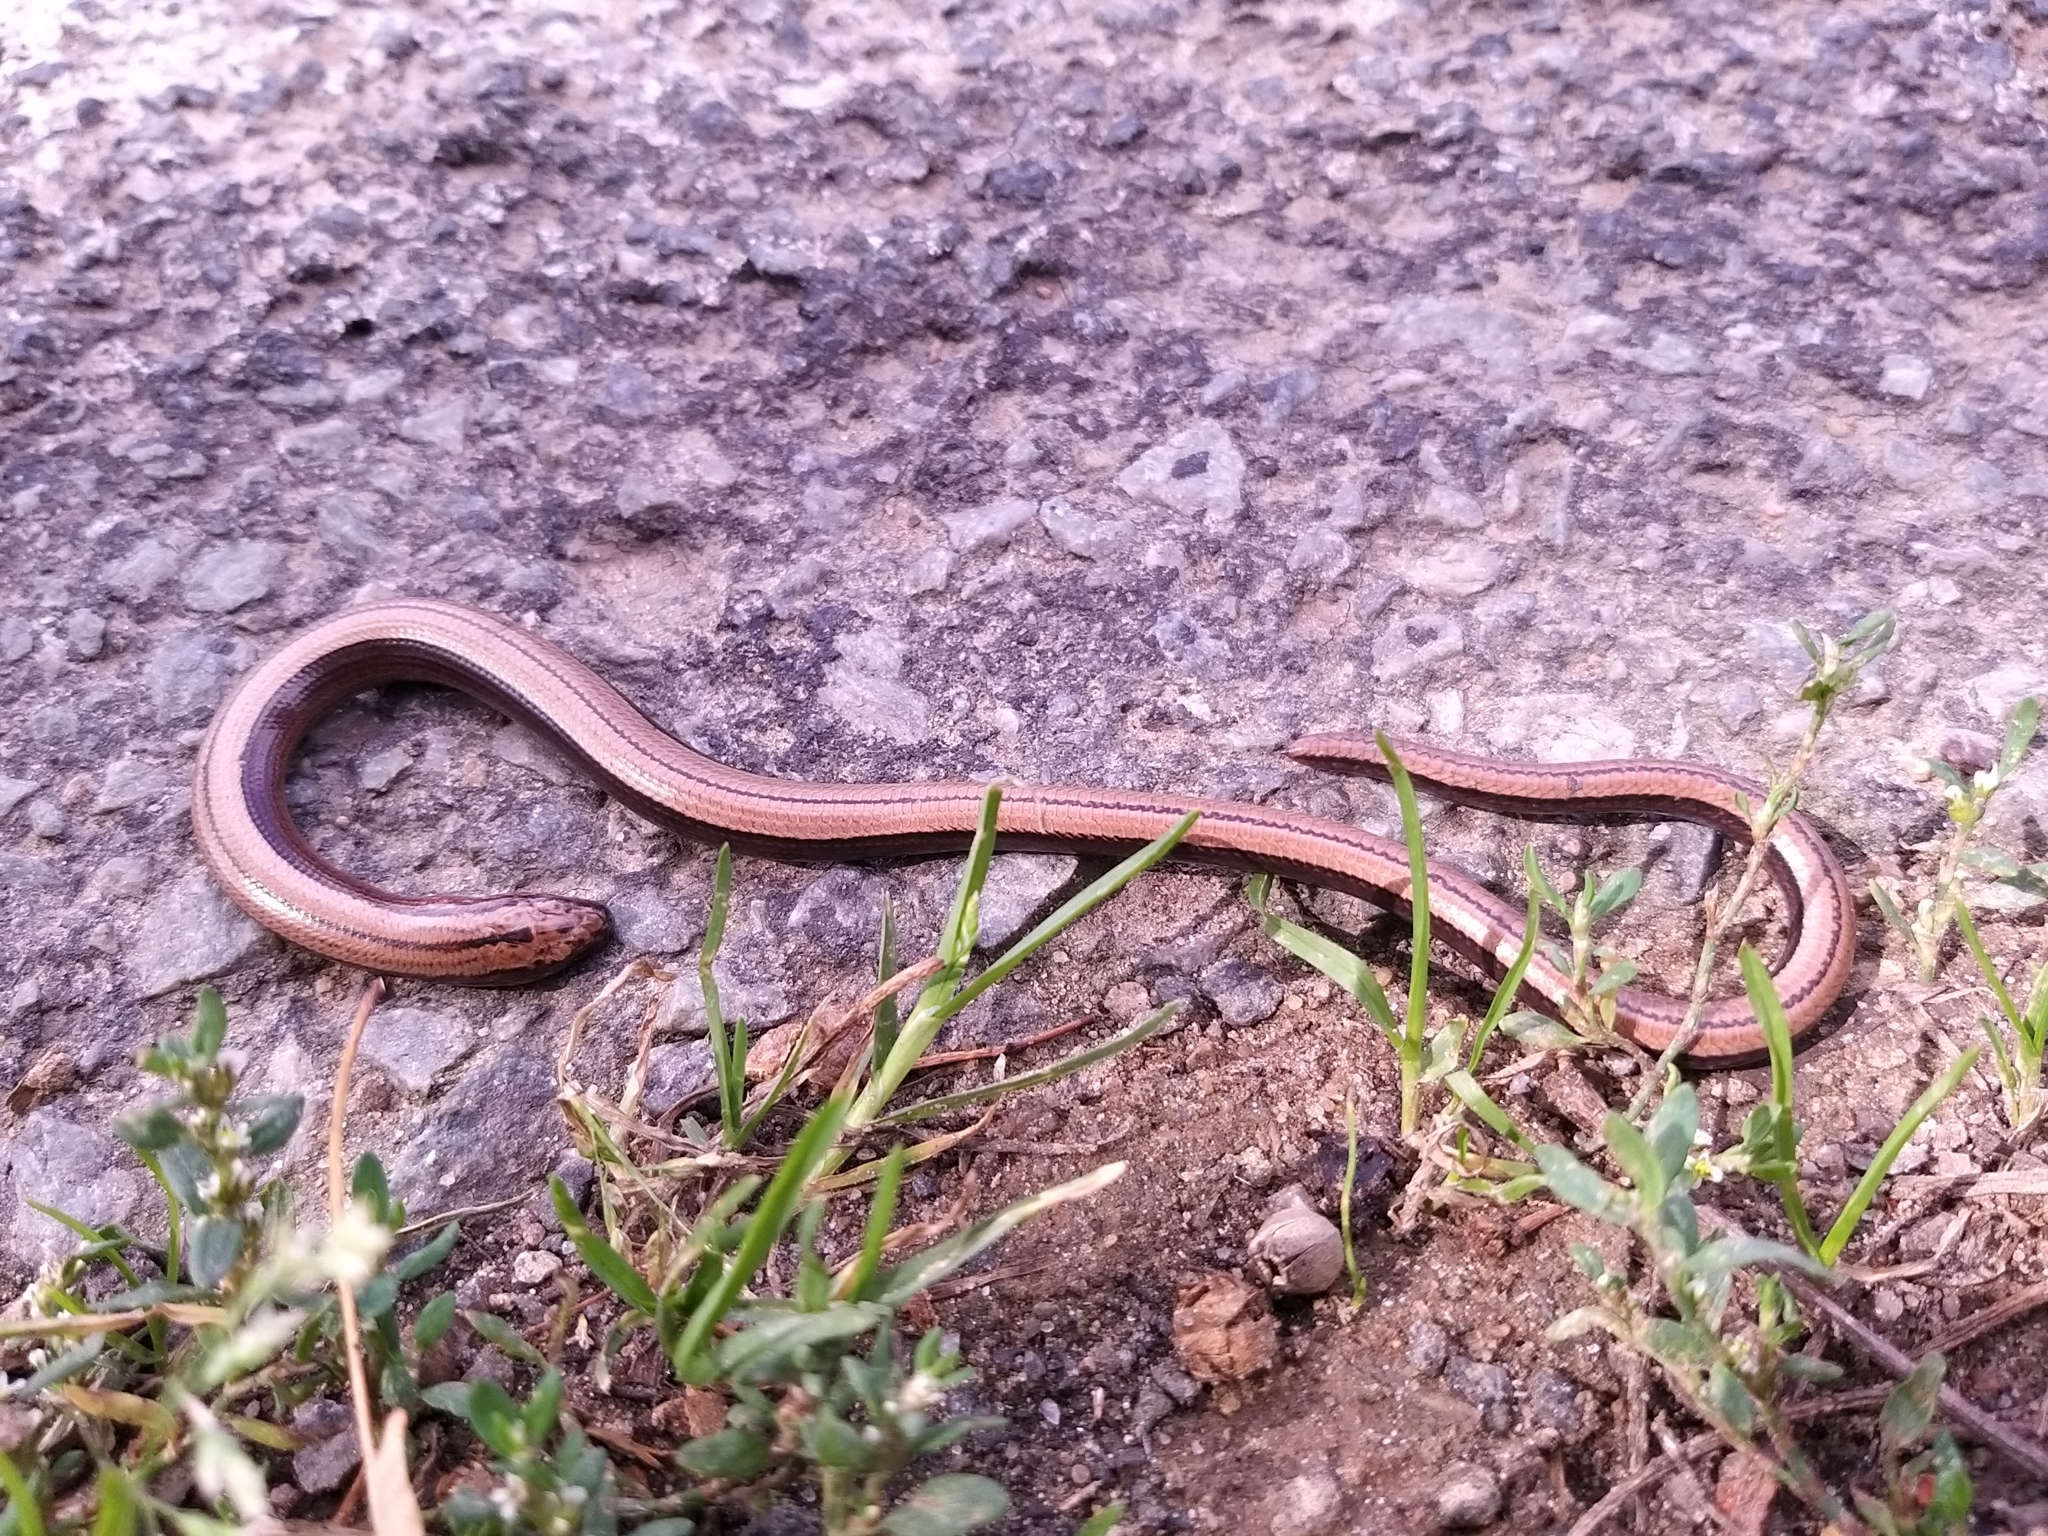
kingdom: Animalia
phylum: Chordata
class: Squamata
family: Anguidae
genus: Anguis
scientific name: Anguis fragilis
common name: Slow worm
